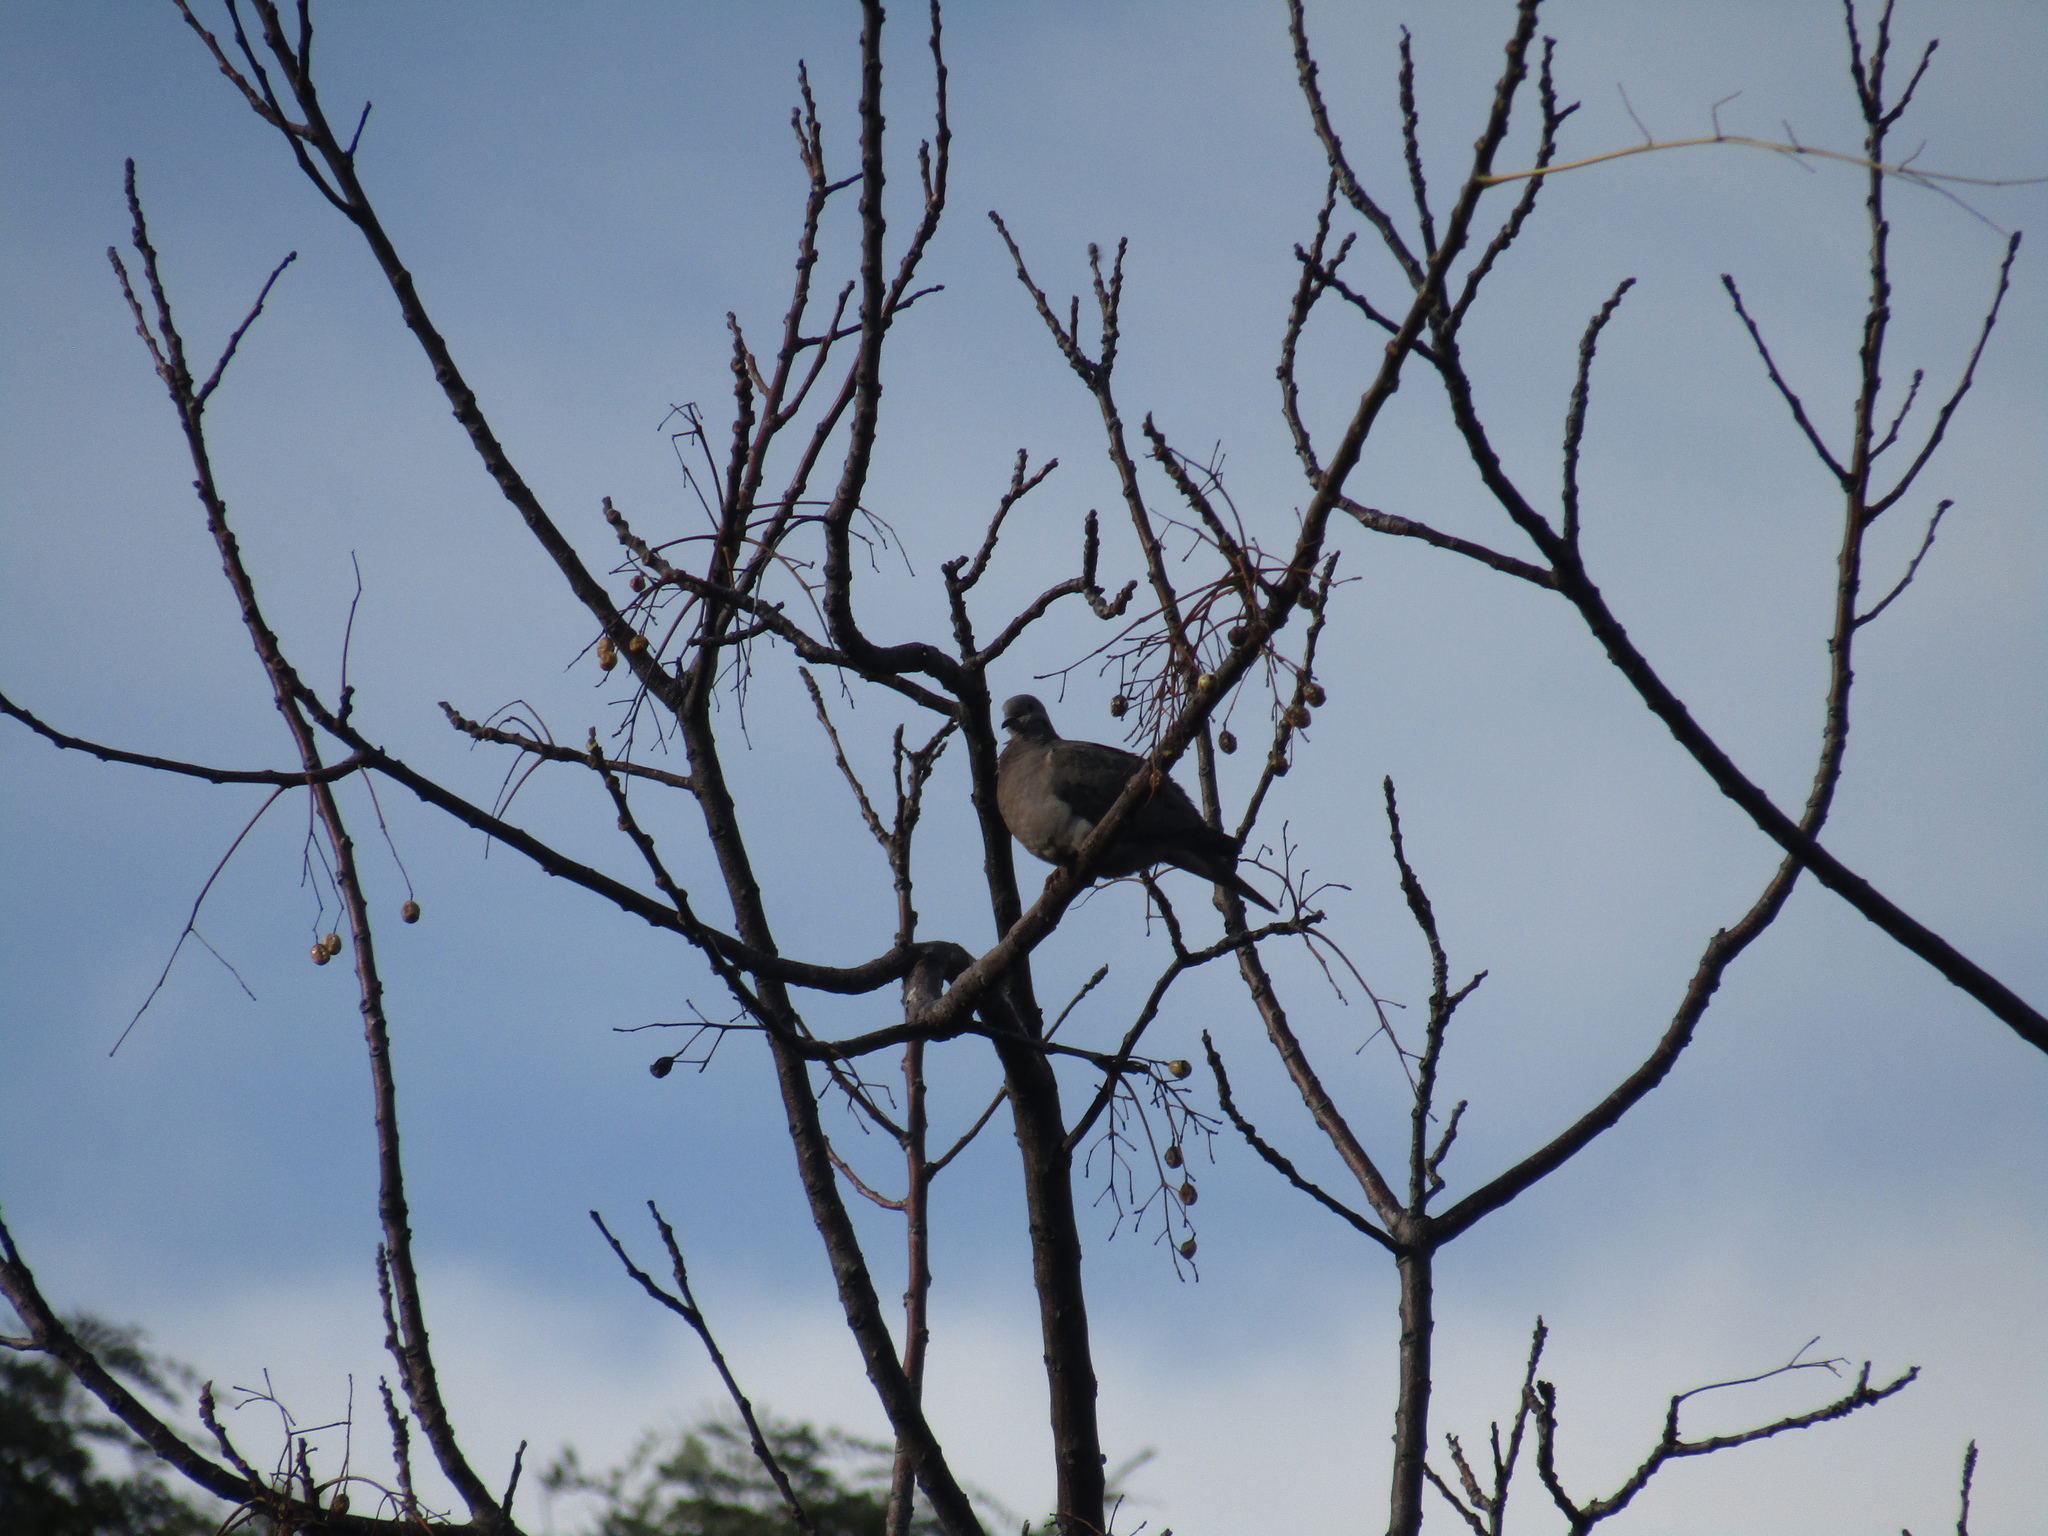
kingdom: Animalia
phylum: Chordata
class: Aves
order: Columbiformes
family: Columbidae
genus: Zenaida
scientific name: Zenaida auriculata
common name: Eared dove
